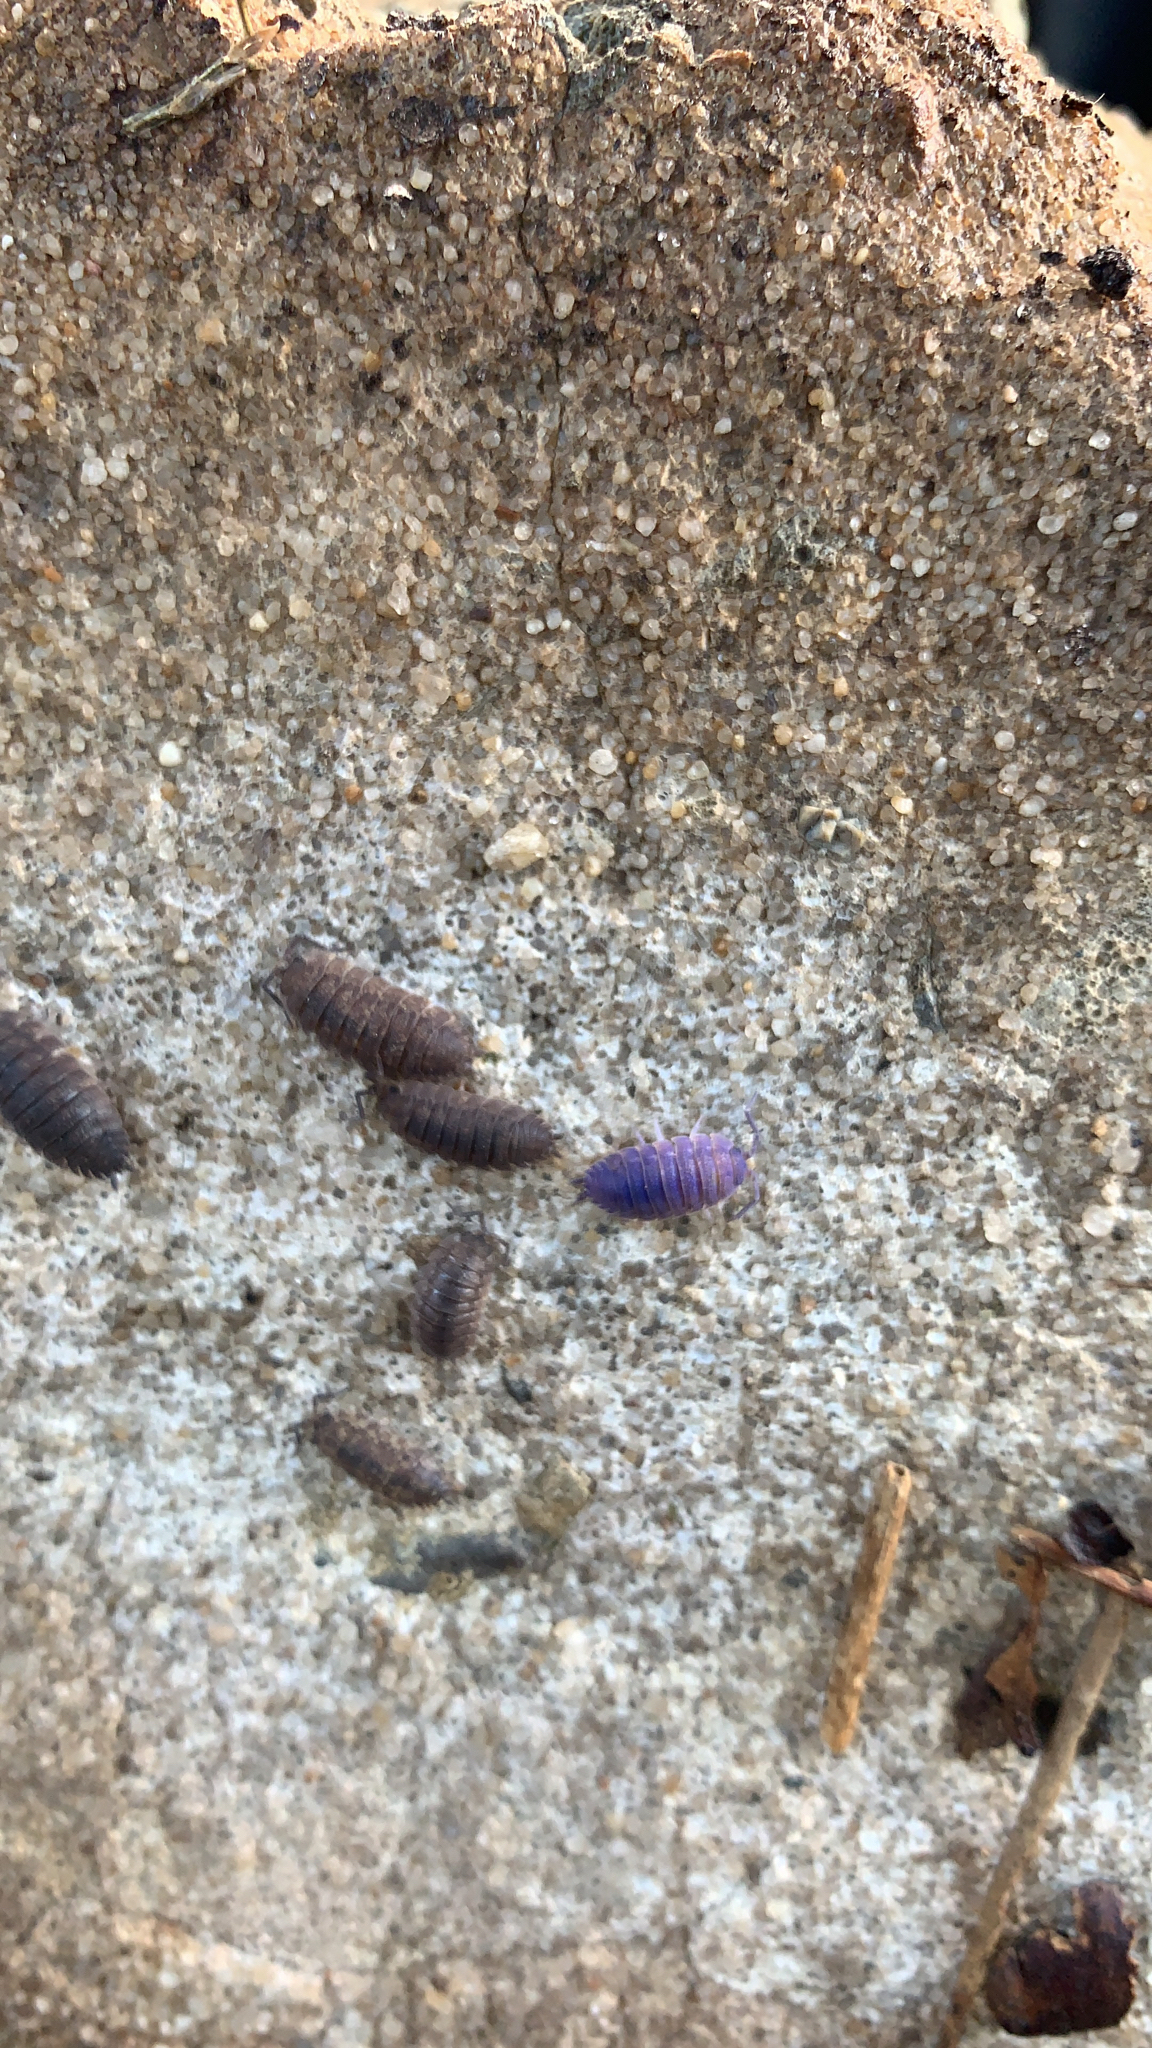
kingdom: Animalia
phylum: Arthropoda
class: Malacostraca
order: Isopoda
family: Porcellionidae
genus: Porcellio
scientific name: Porcellio scaber
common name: Common rough woodlouse
